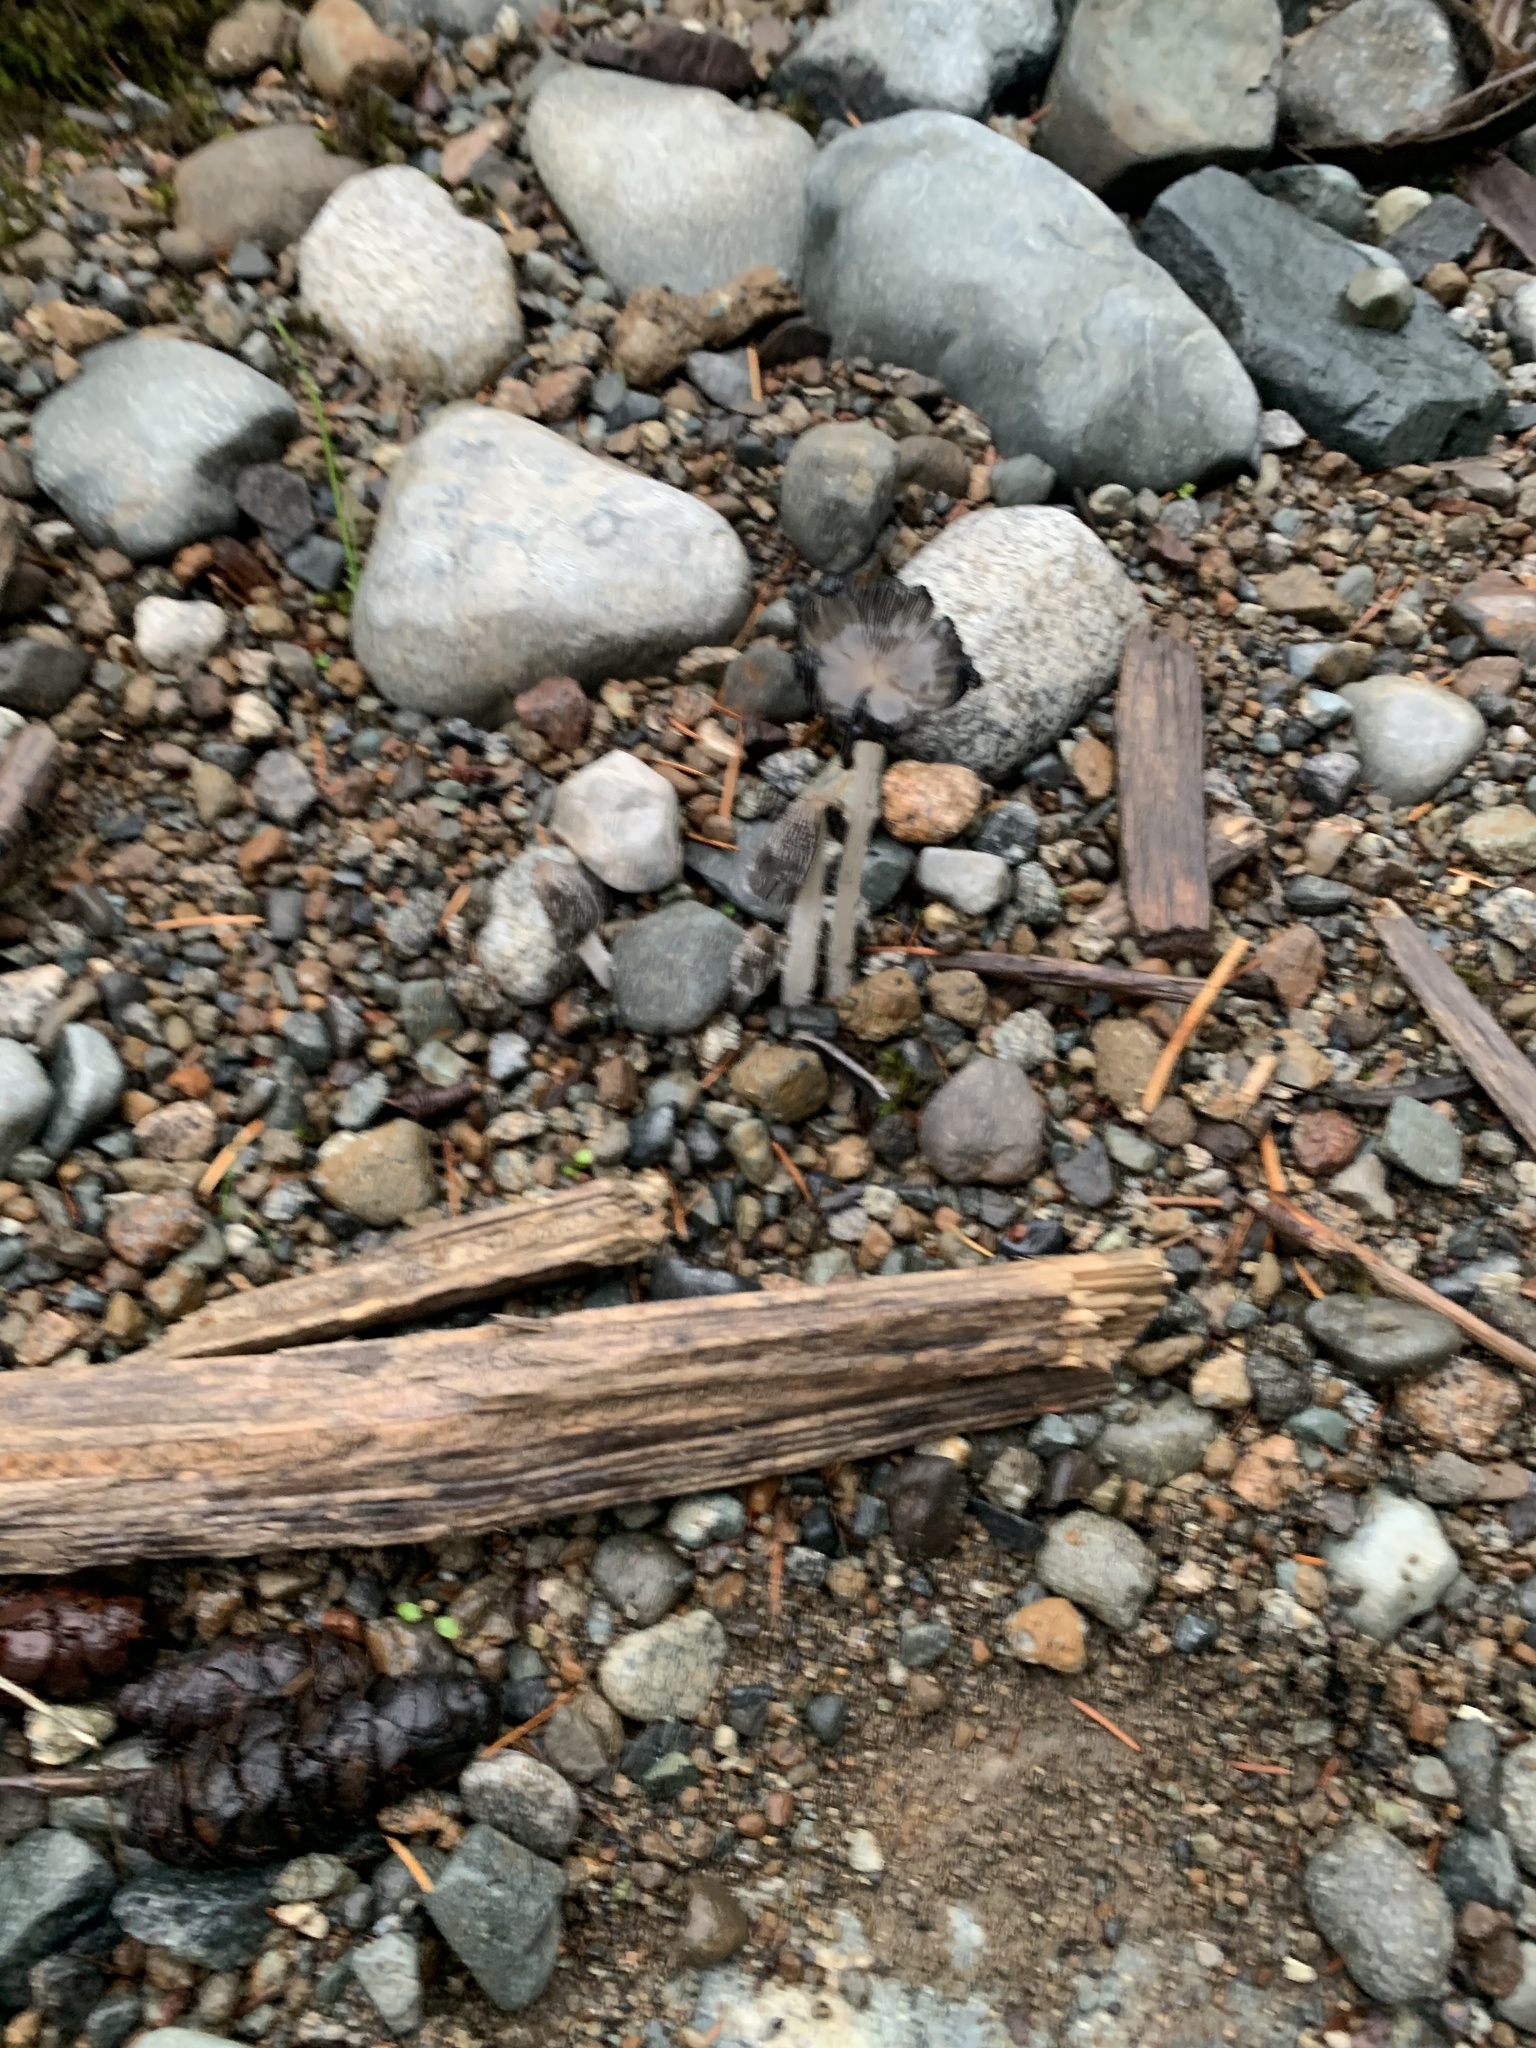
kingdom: Fungi
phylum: Basidiomycota
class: Agaricomycetes
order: Agaricales
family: Psathyrellaceae
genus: Coprinopsis
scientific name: Coprinopsis lagopus
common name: Hare'sfoot inkcap
